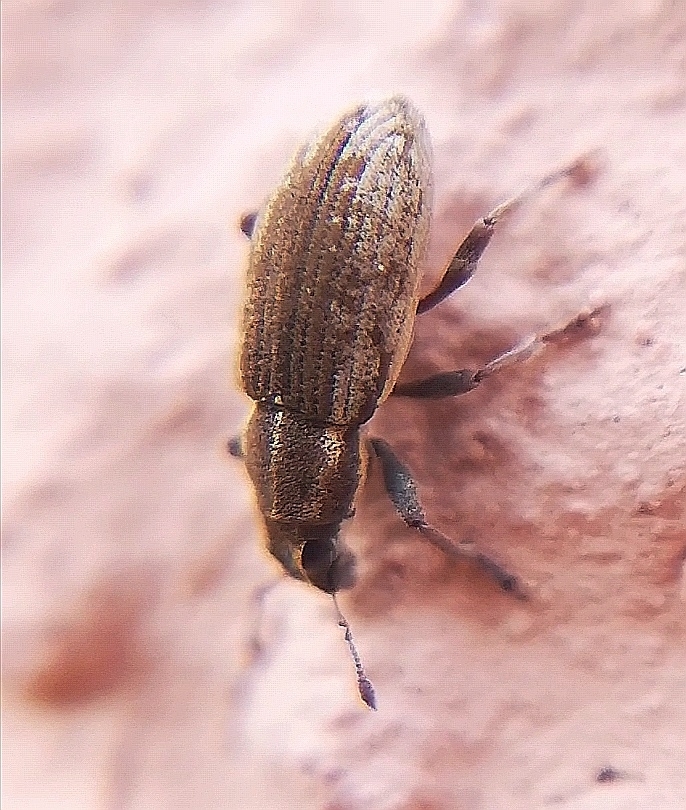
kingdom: Animalia
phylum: Arthropoda
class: Insecta
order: Coleoptera
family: Curculionidae
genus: Sitona
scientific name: Sitona humeralis
